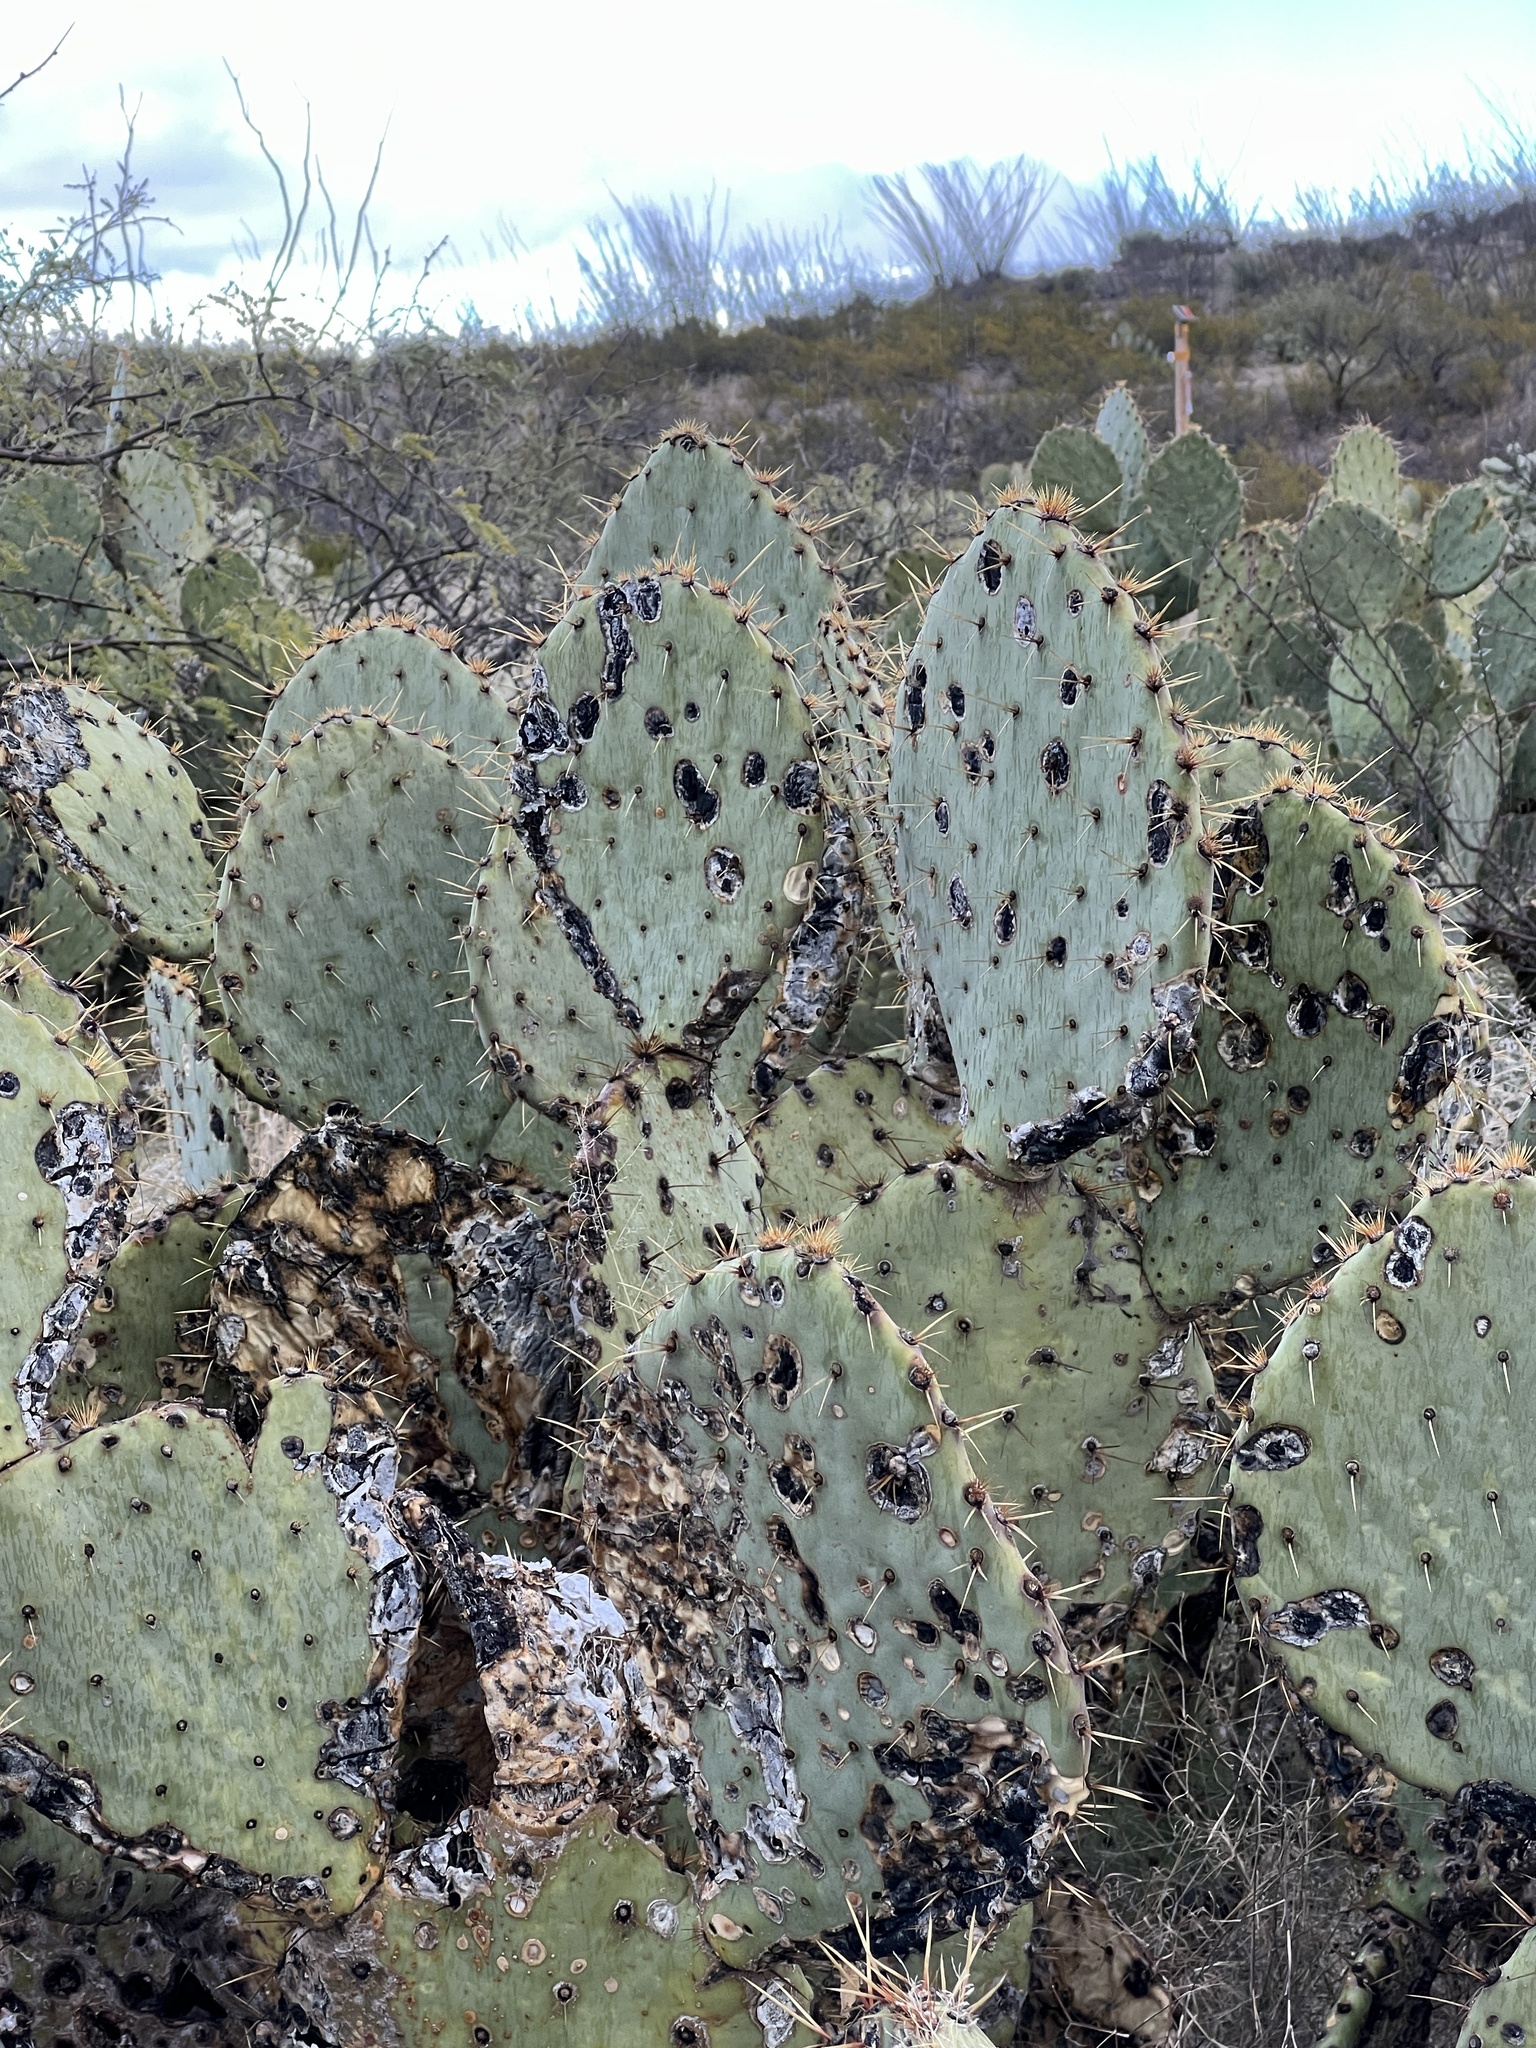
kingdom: Plantae
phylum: Tracheophyta
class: Magnoliopsida
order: Caryophyllales
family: Cactaceae
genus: Opuntia
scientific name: Opuntia engelmannii
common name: Cactus-apple
